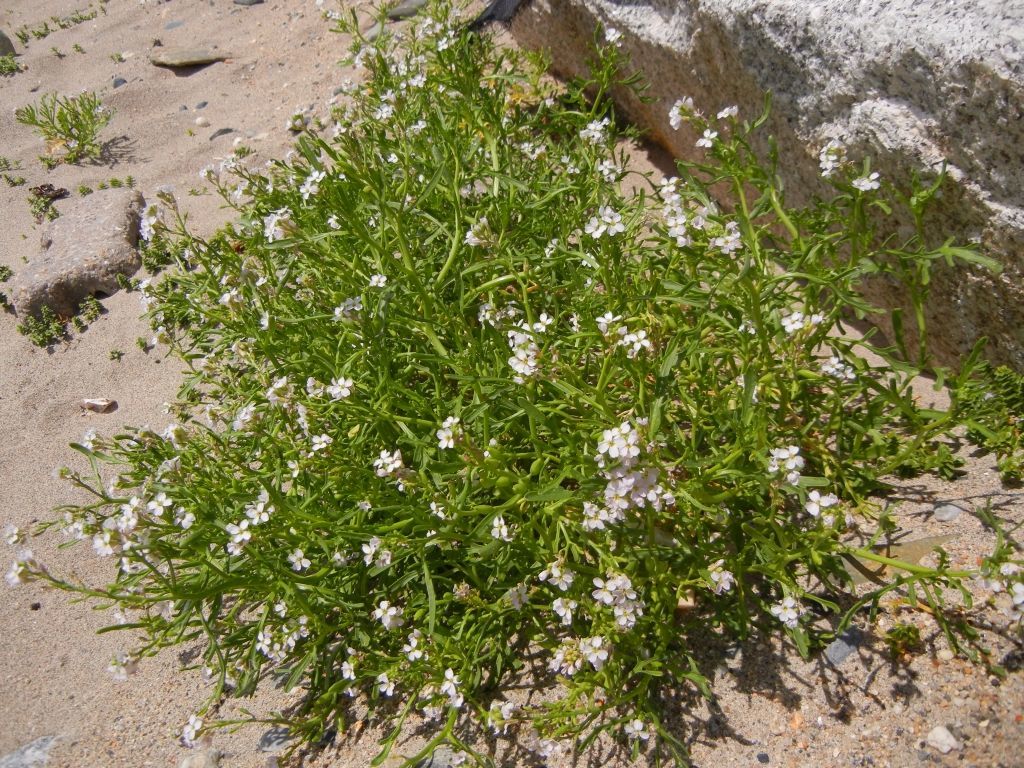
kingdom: Plantae
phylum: Tracheophyta
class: Magnoliopsida
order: Brassicales
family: Brassicaceae
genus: Cakile
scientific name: Cakile maritima
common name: Sea rocket
